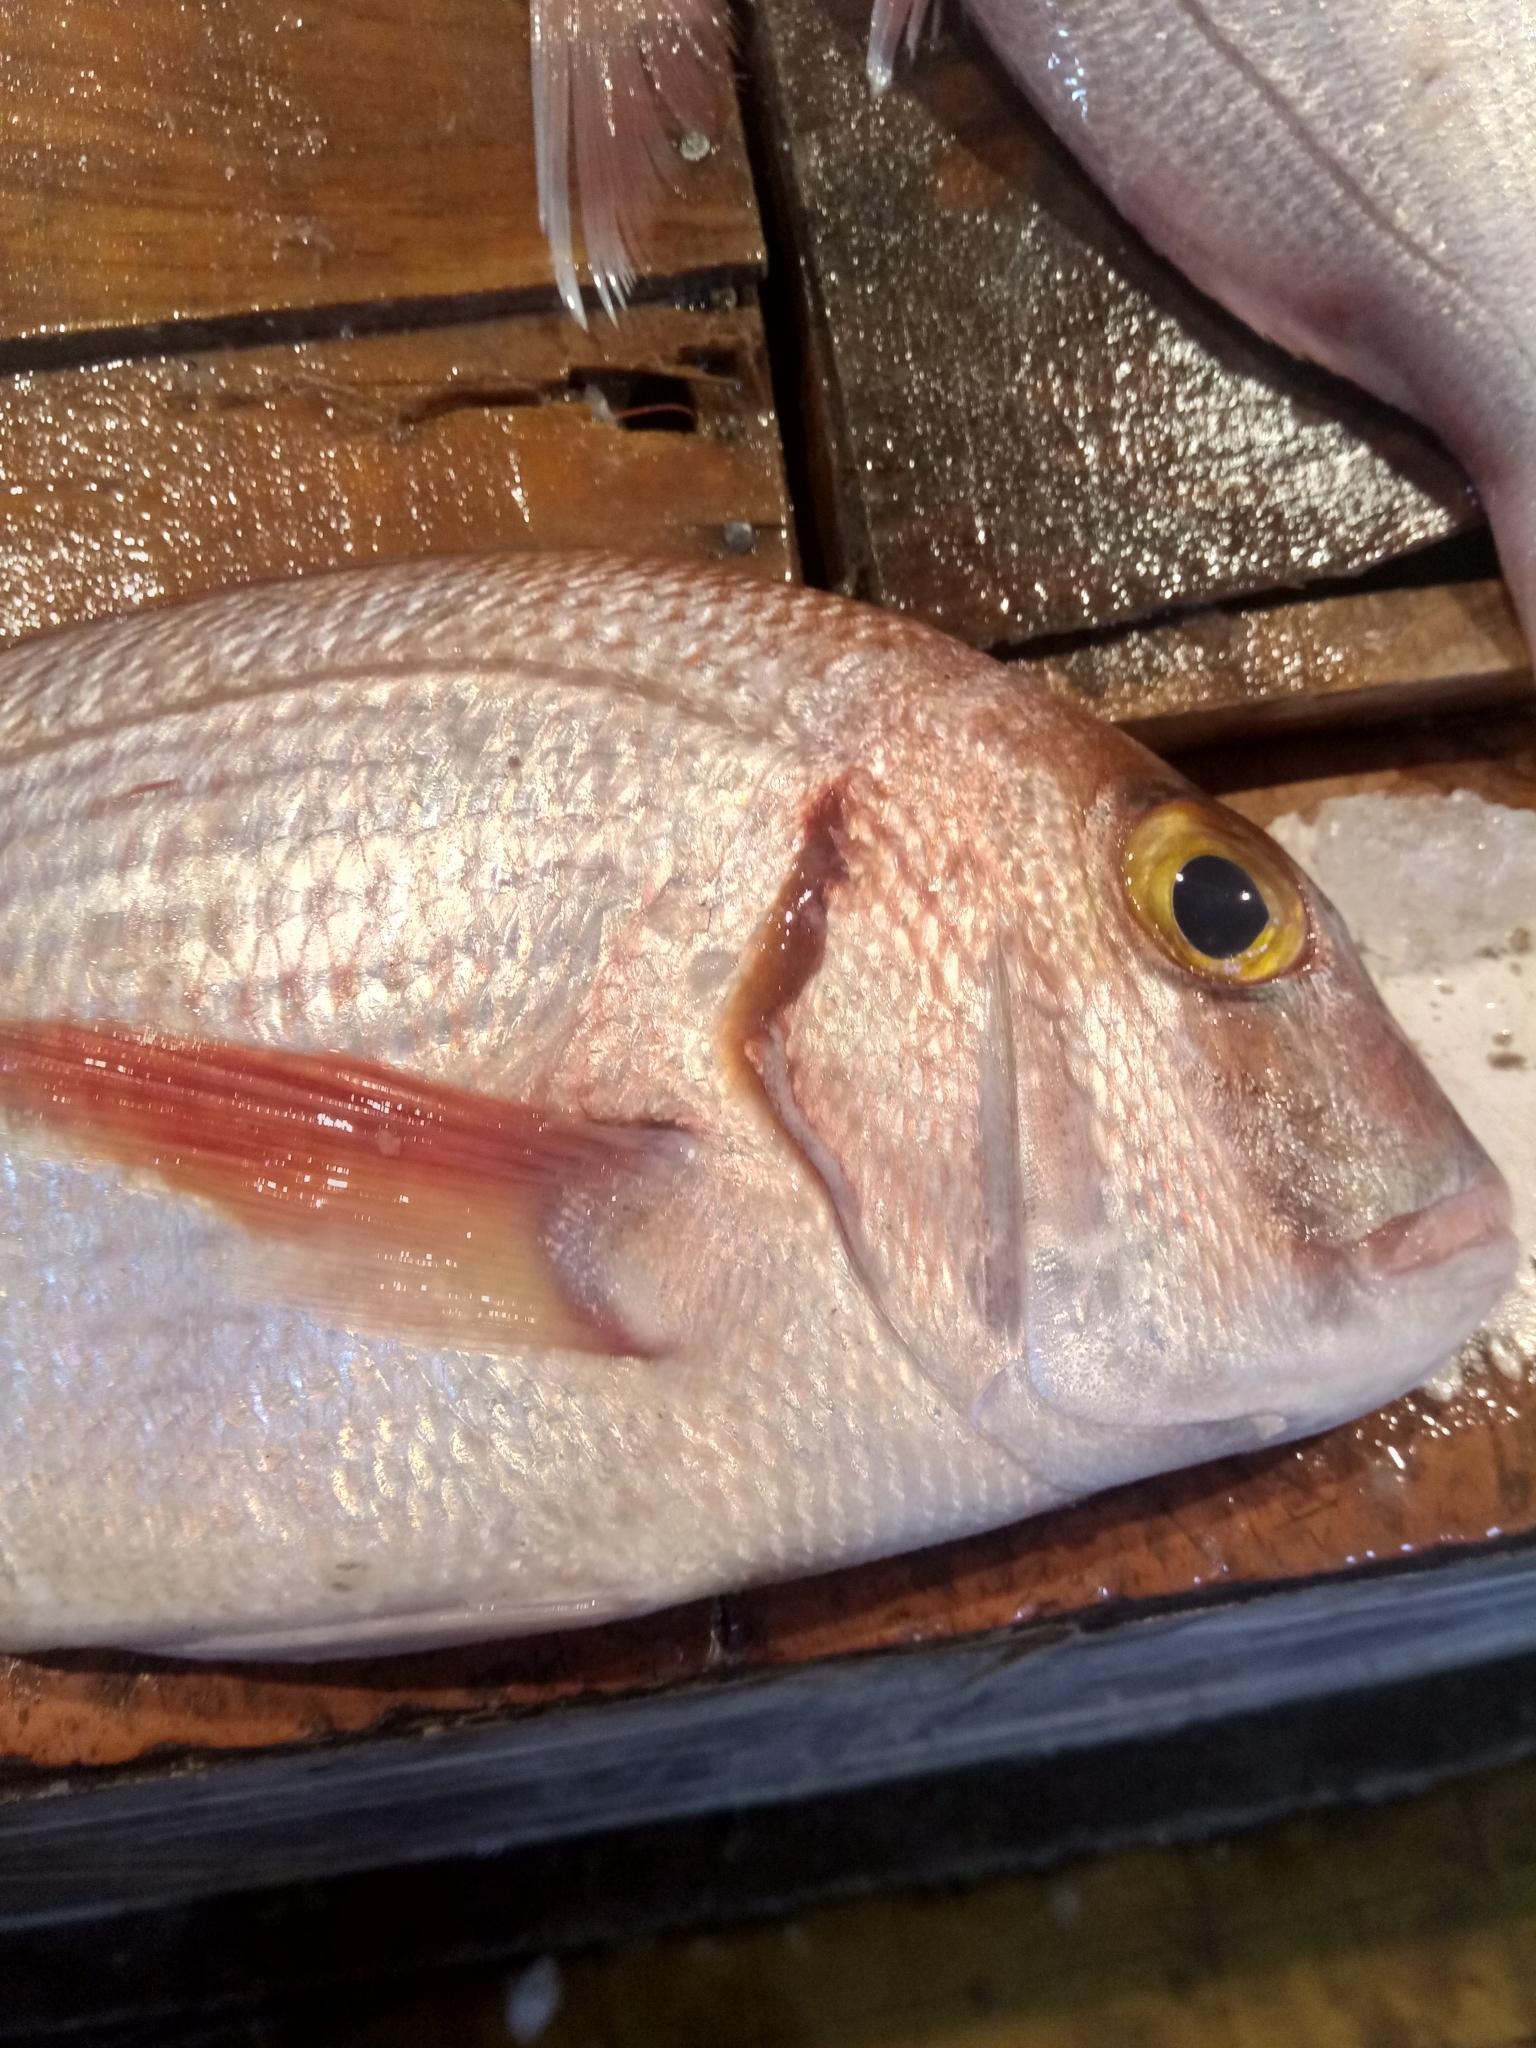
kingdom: Animalia
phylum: Chordata
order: Perciformes
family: Sparidae
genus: Pagrus
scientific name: Pagrus pagrus
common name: Red porgy
